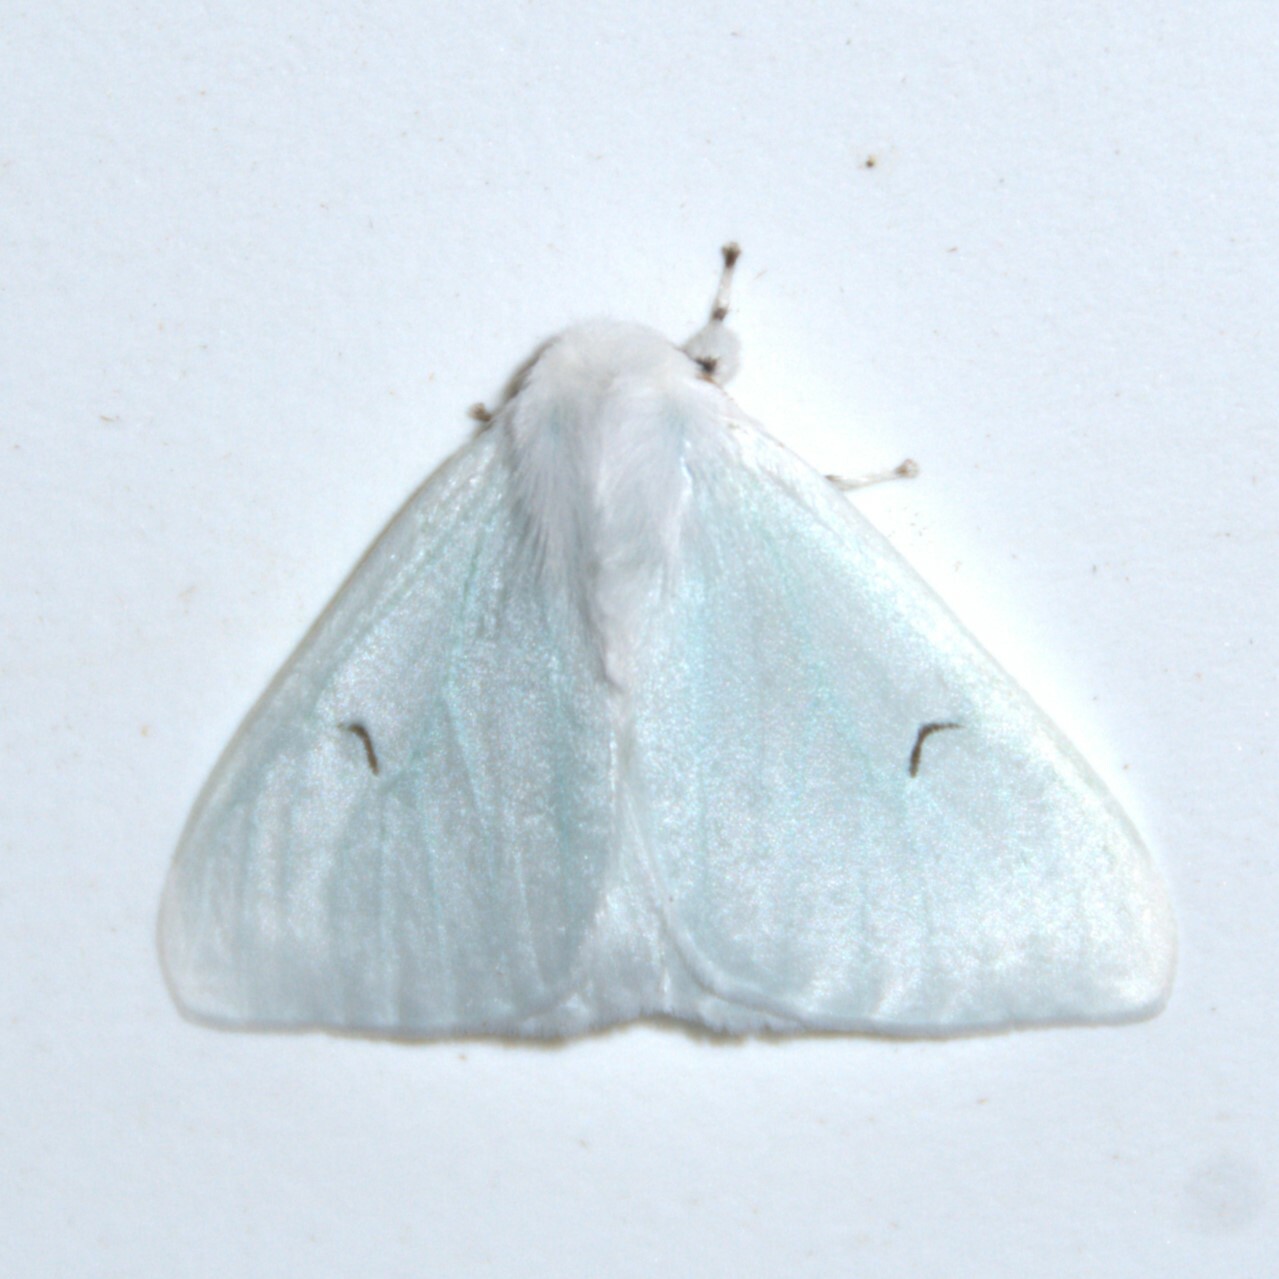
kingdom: Animalia
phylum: Arthropoda
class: Insecta
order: Lepidoptera
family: Erebidae
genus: Arctornis
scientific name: Arctornis l-nigrum
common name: Black v moth
